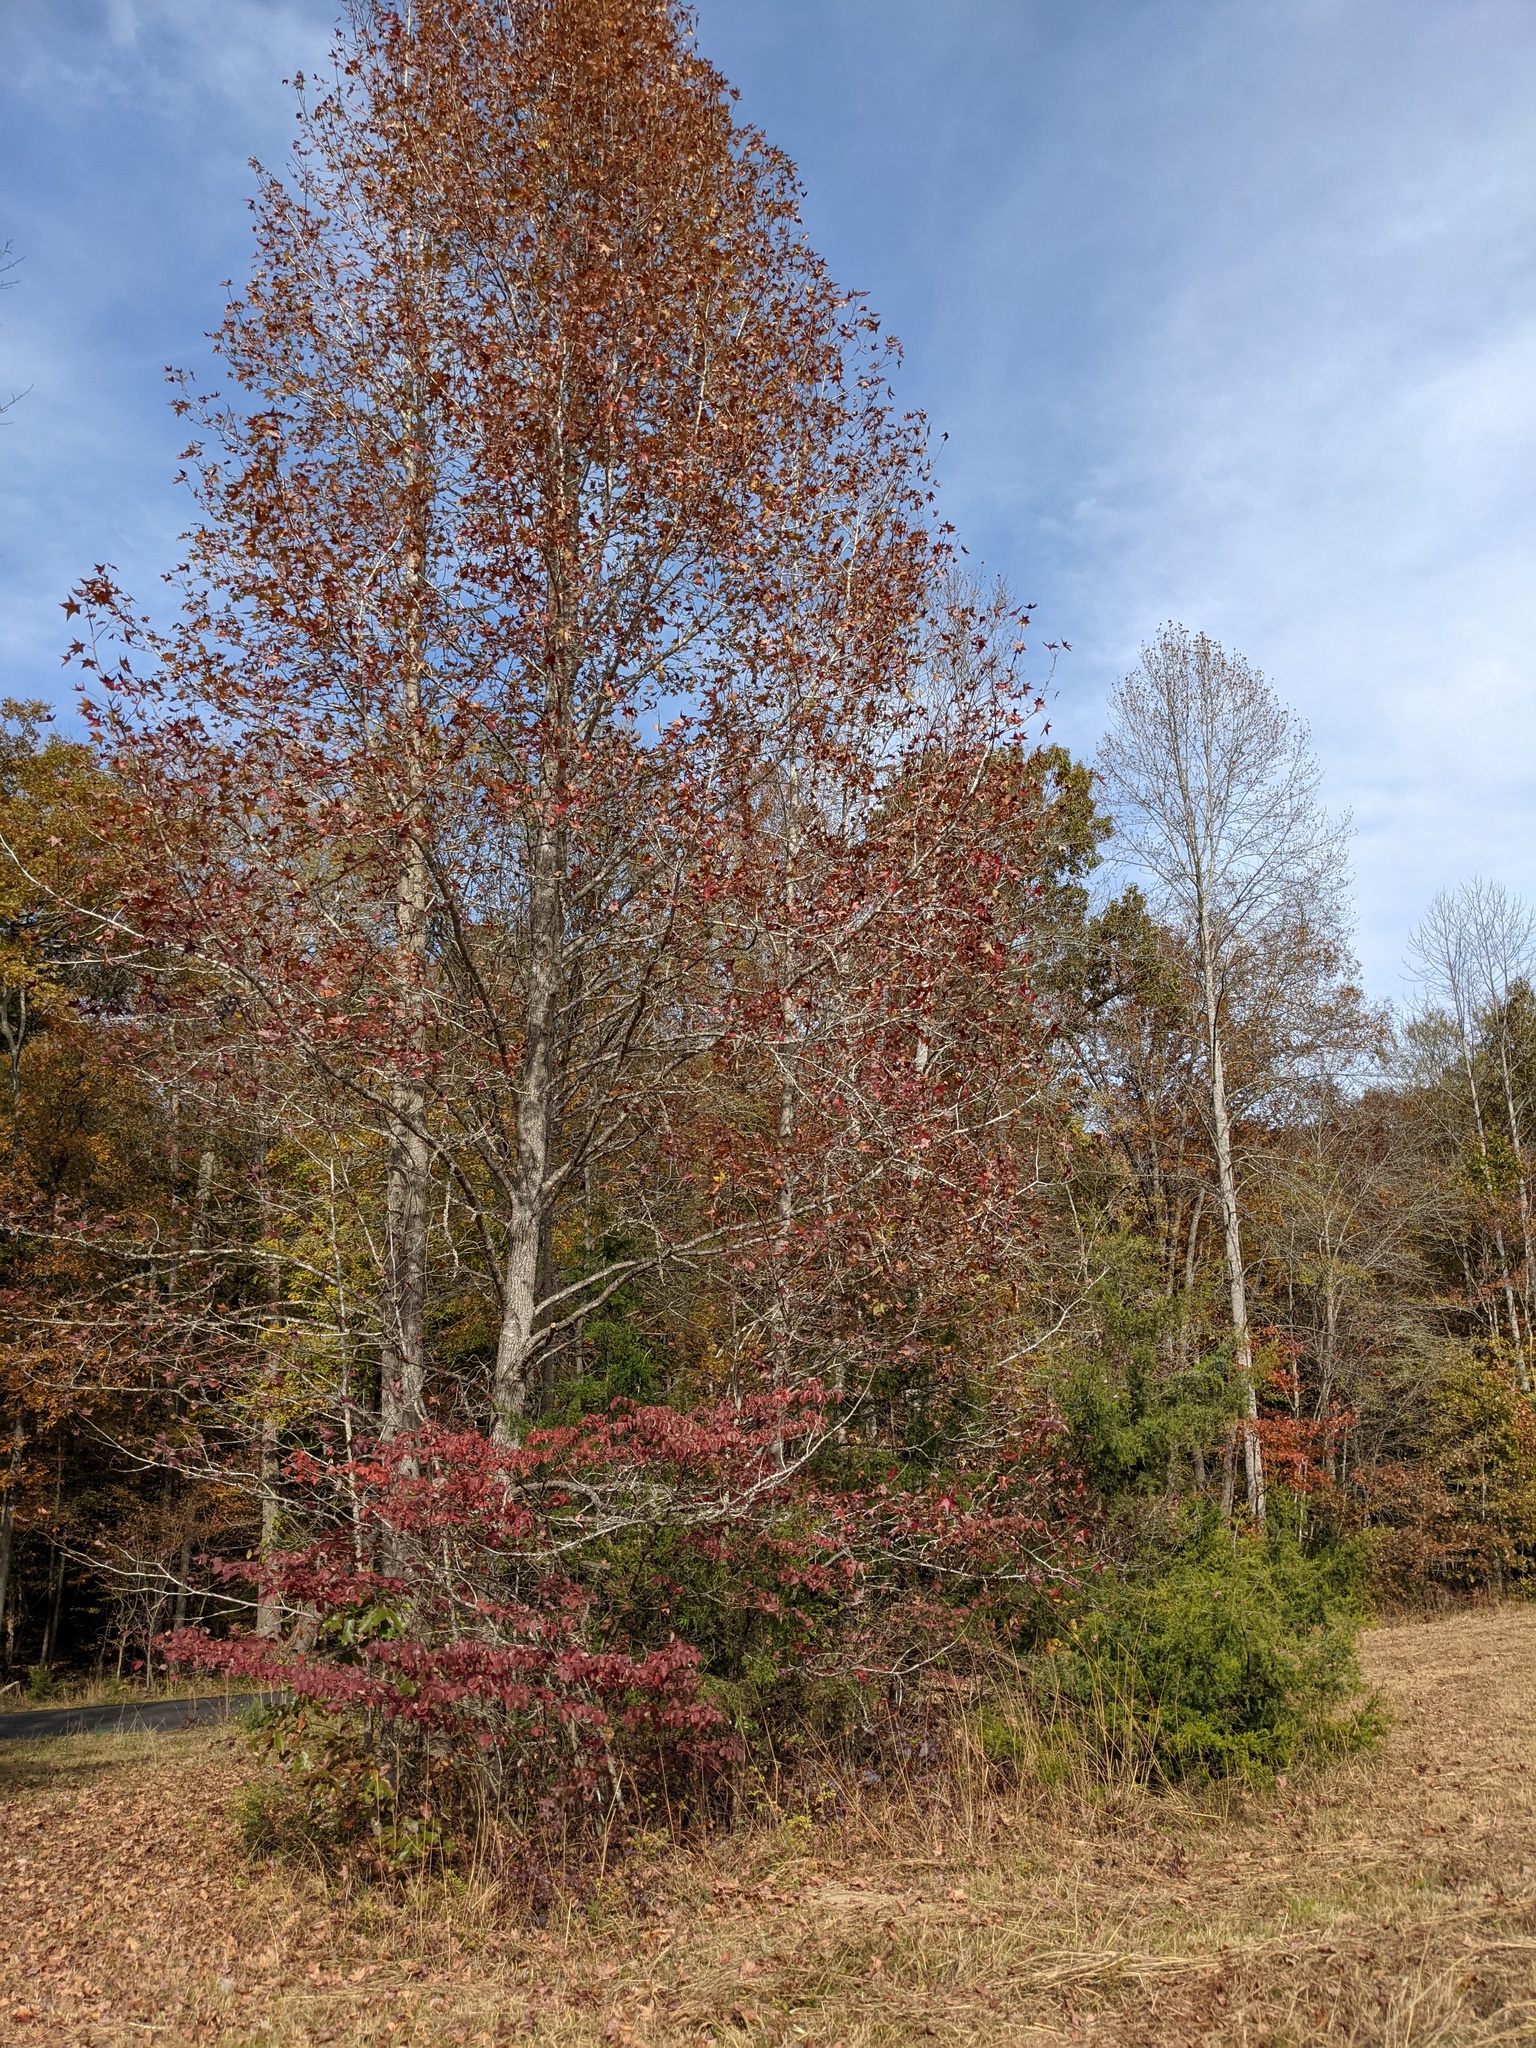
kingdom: Plantae
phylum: Tracheophyta
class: Magnoliopsida
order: Saxifragales
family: Altingiaceae
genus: Liquidambar
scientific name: Liquidambar styraciflua
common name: Sweet gum
